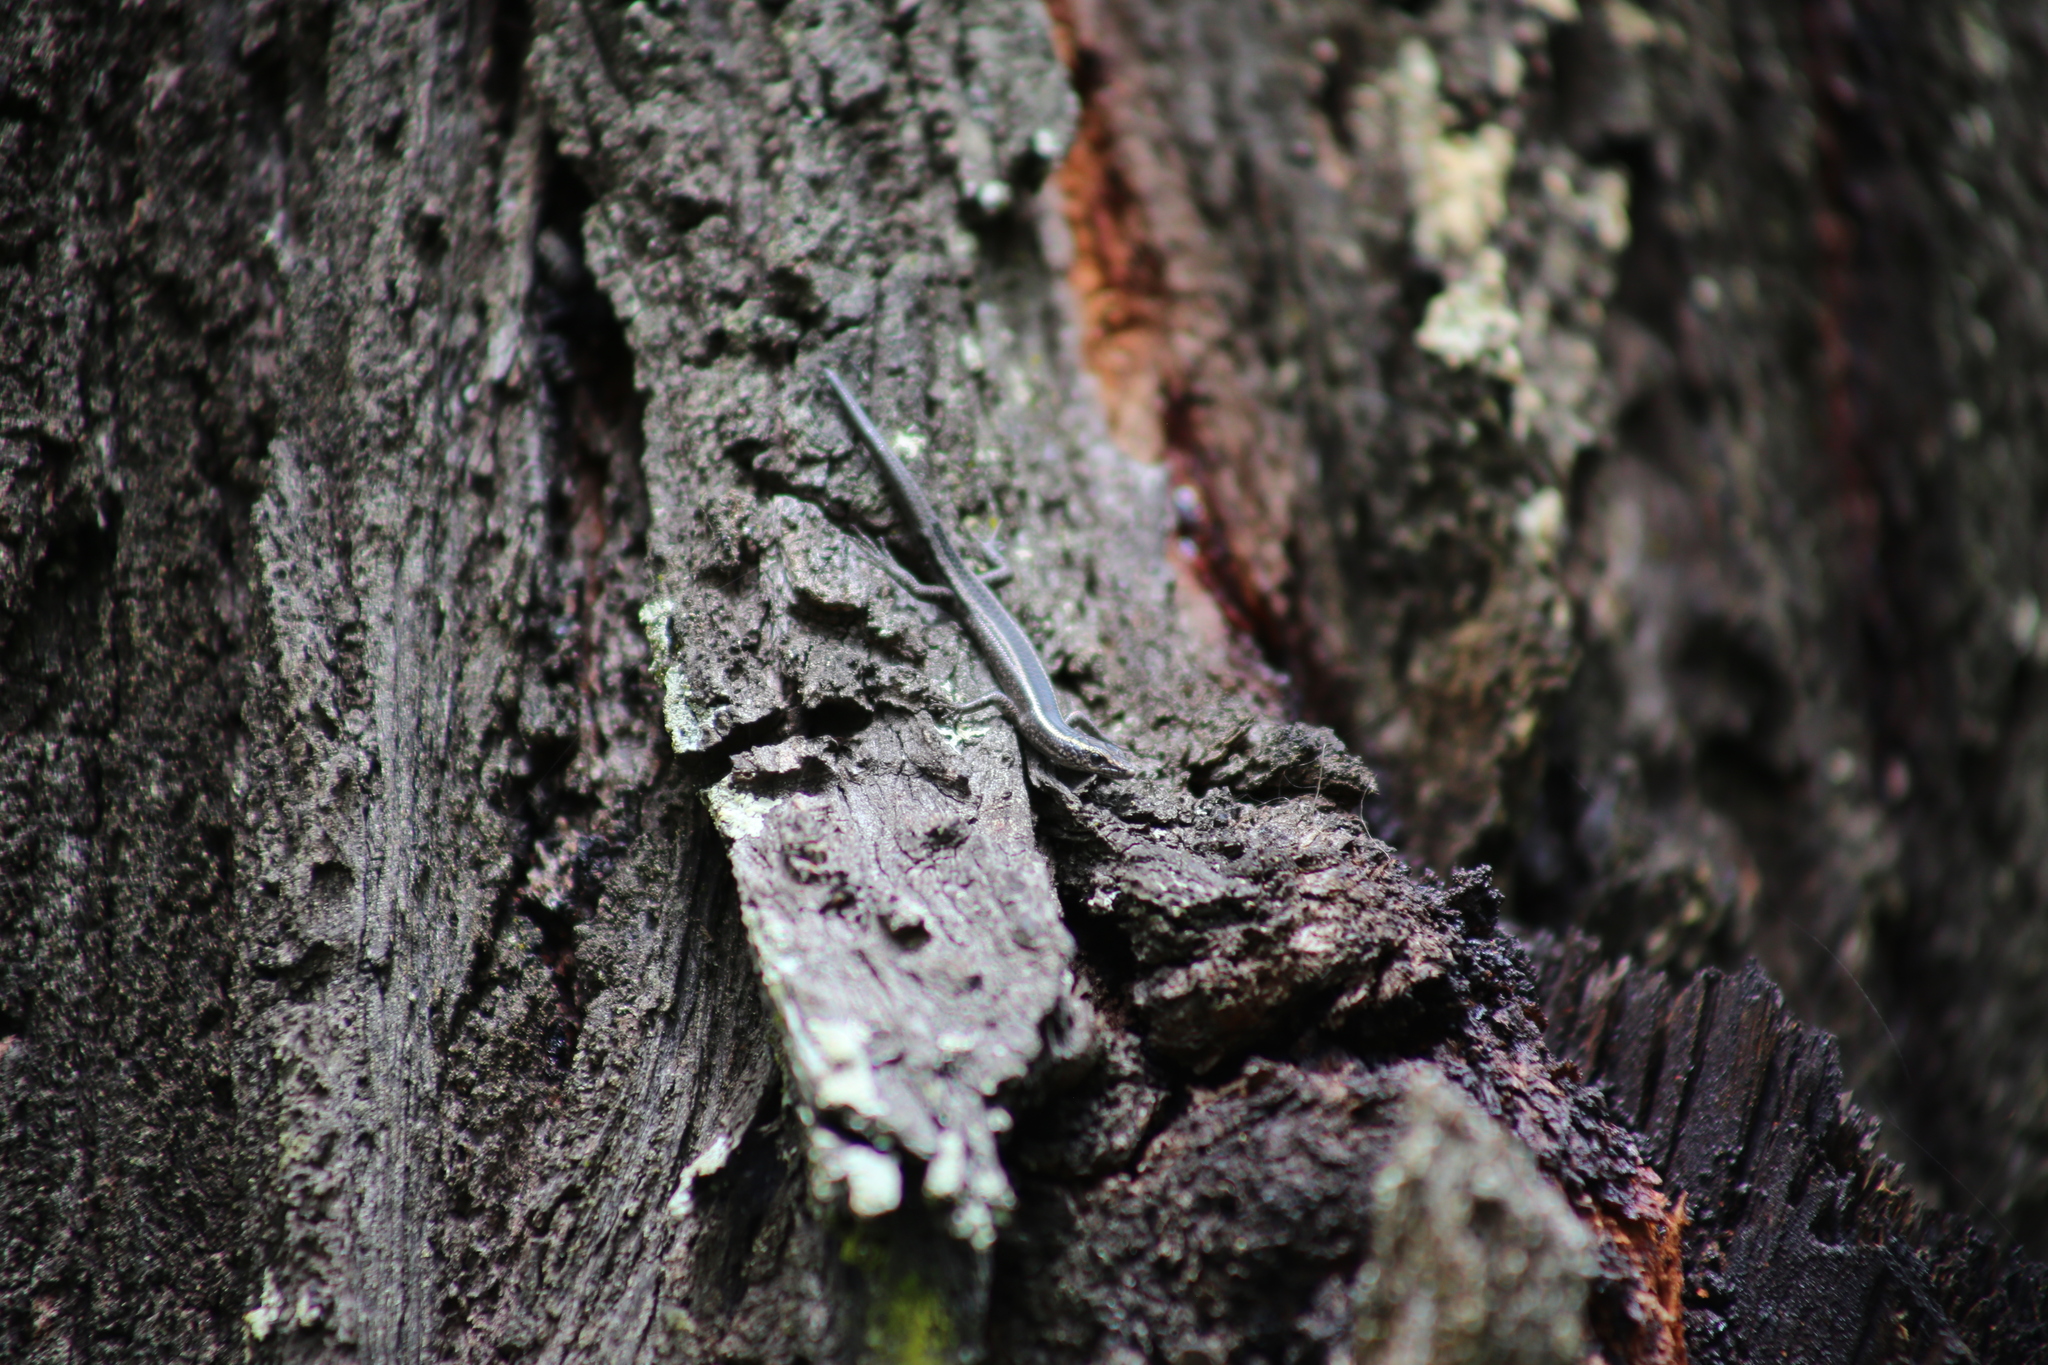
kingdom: Animalia
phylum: Chordata
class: Squamata
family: Scincidae
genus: Cryptoblepharus
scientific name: Cryptoblepharus pulcher
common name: Elegant snake-eyed skink
